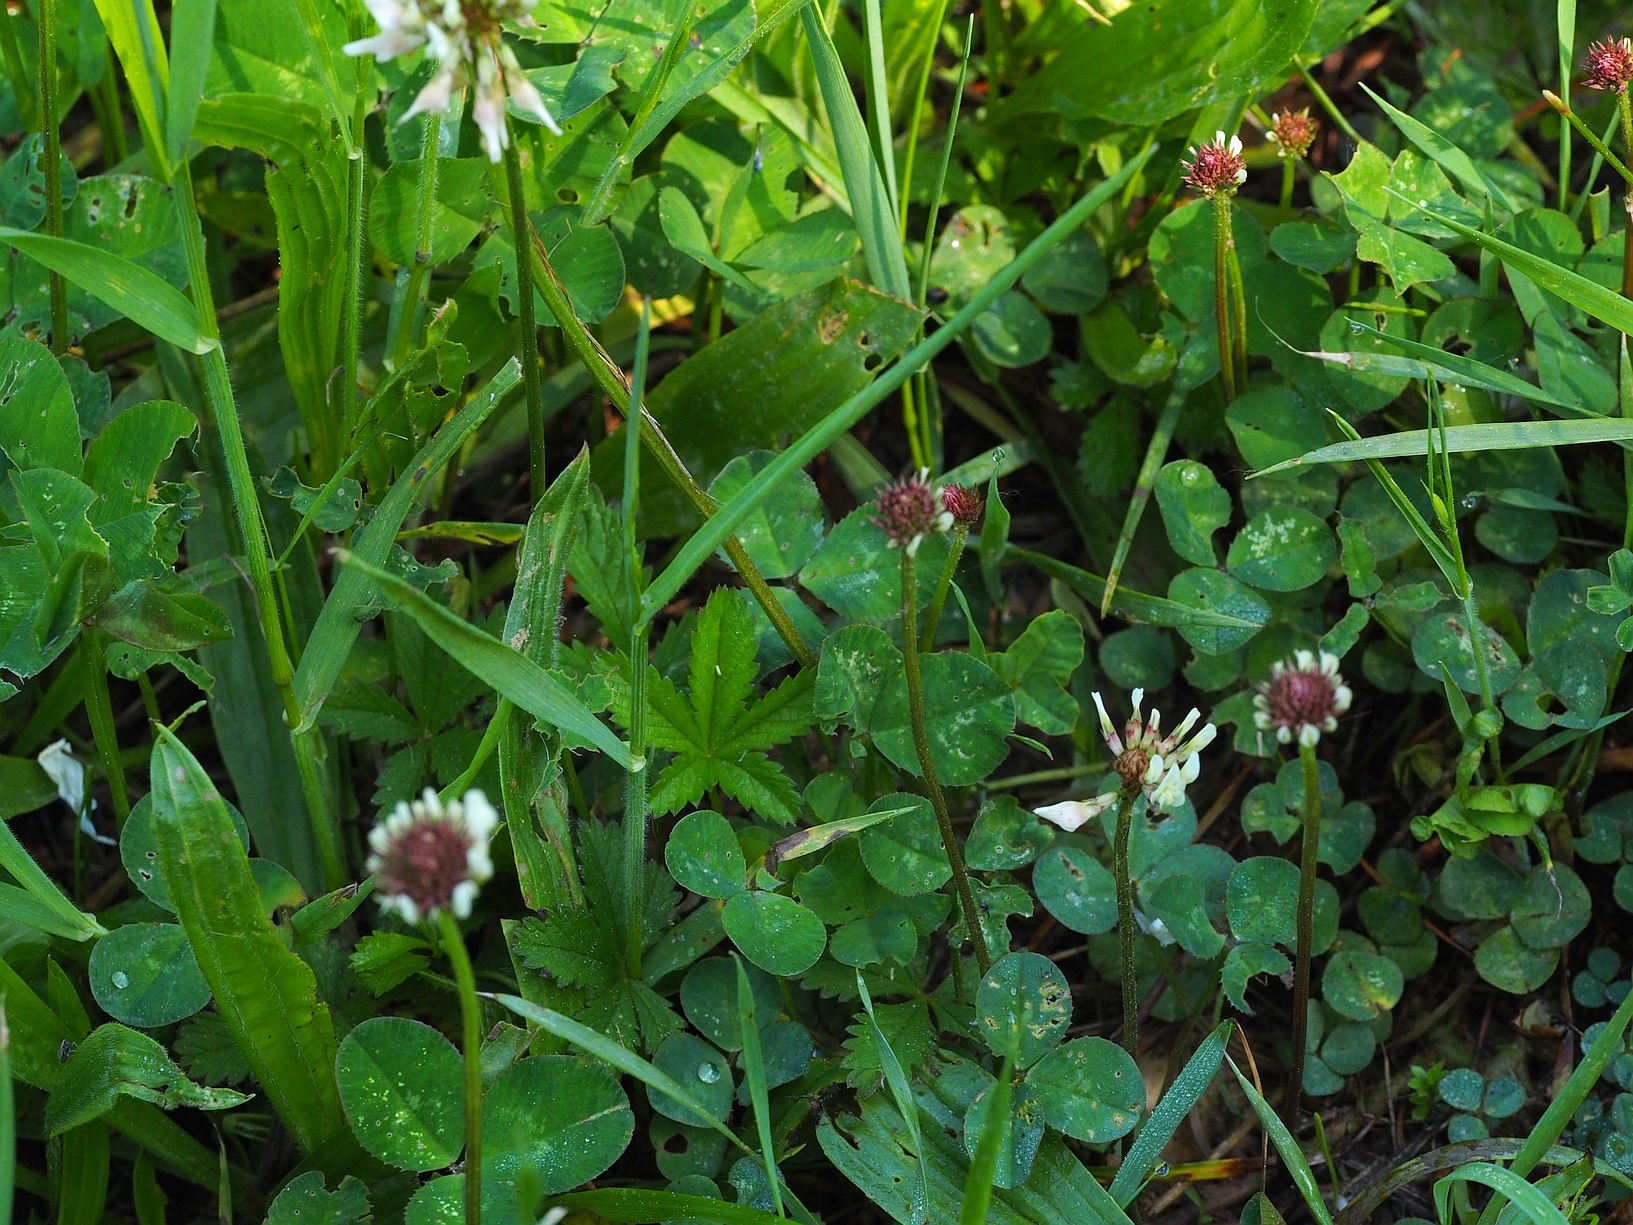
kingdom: Plantae
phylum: Tracheophyta
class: Magnoliopsida
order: Fabales
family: Fabaceae
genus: Trifolium
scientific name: Trifolium repens
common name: White clover
